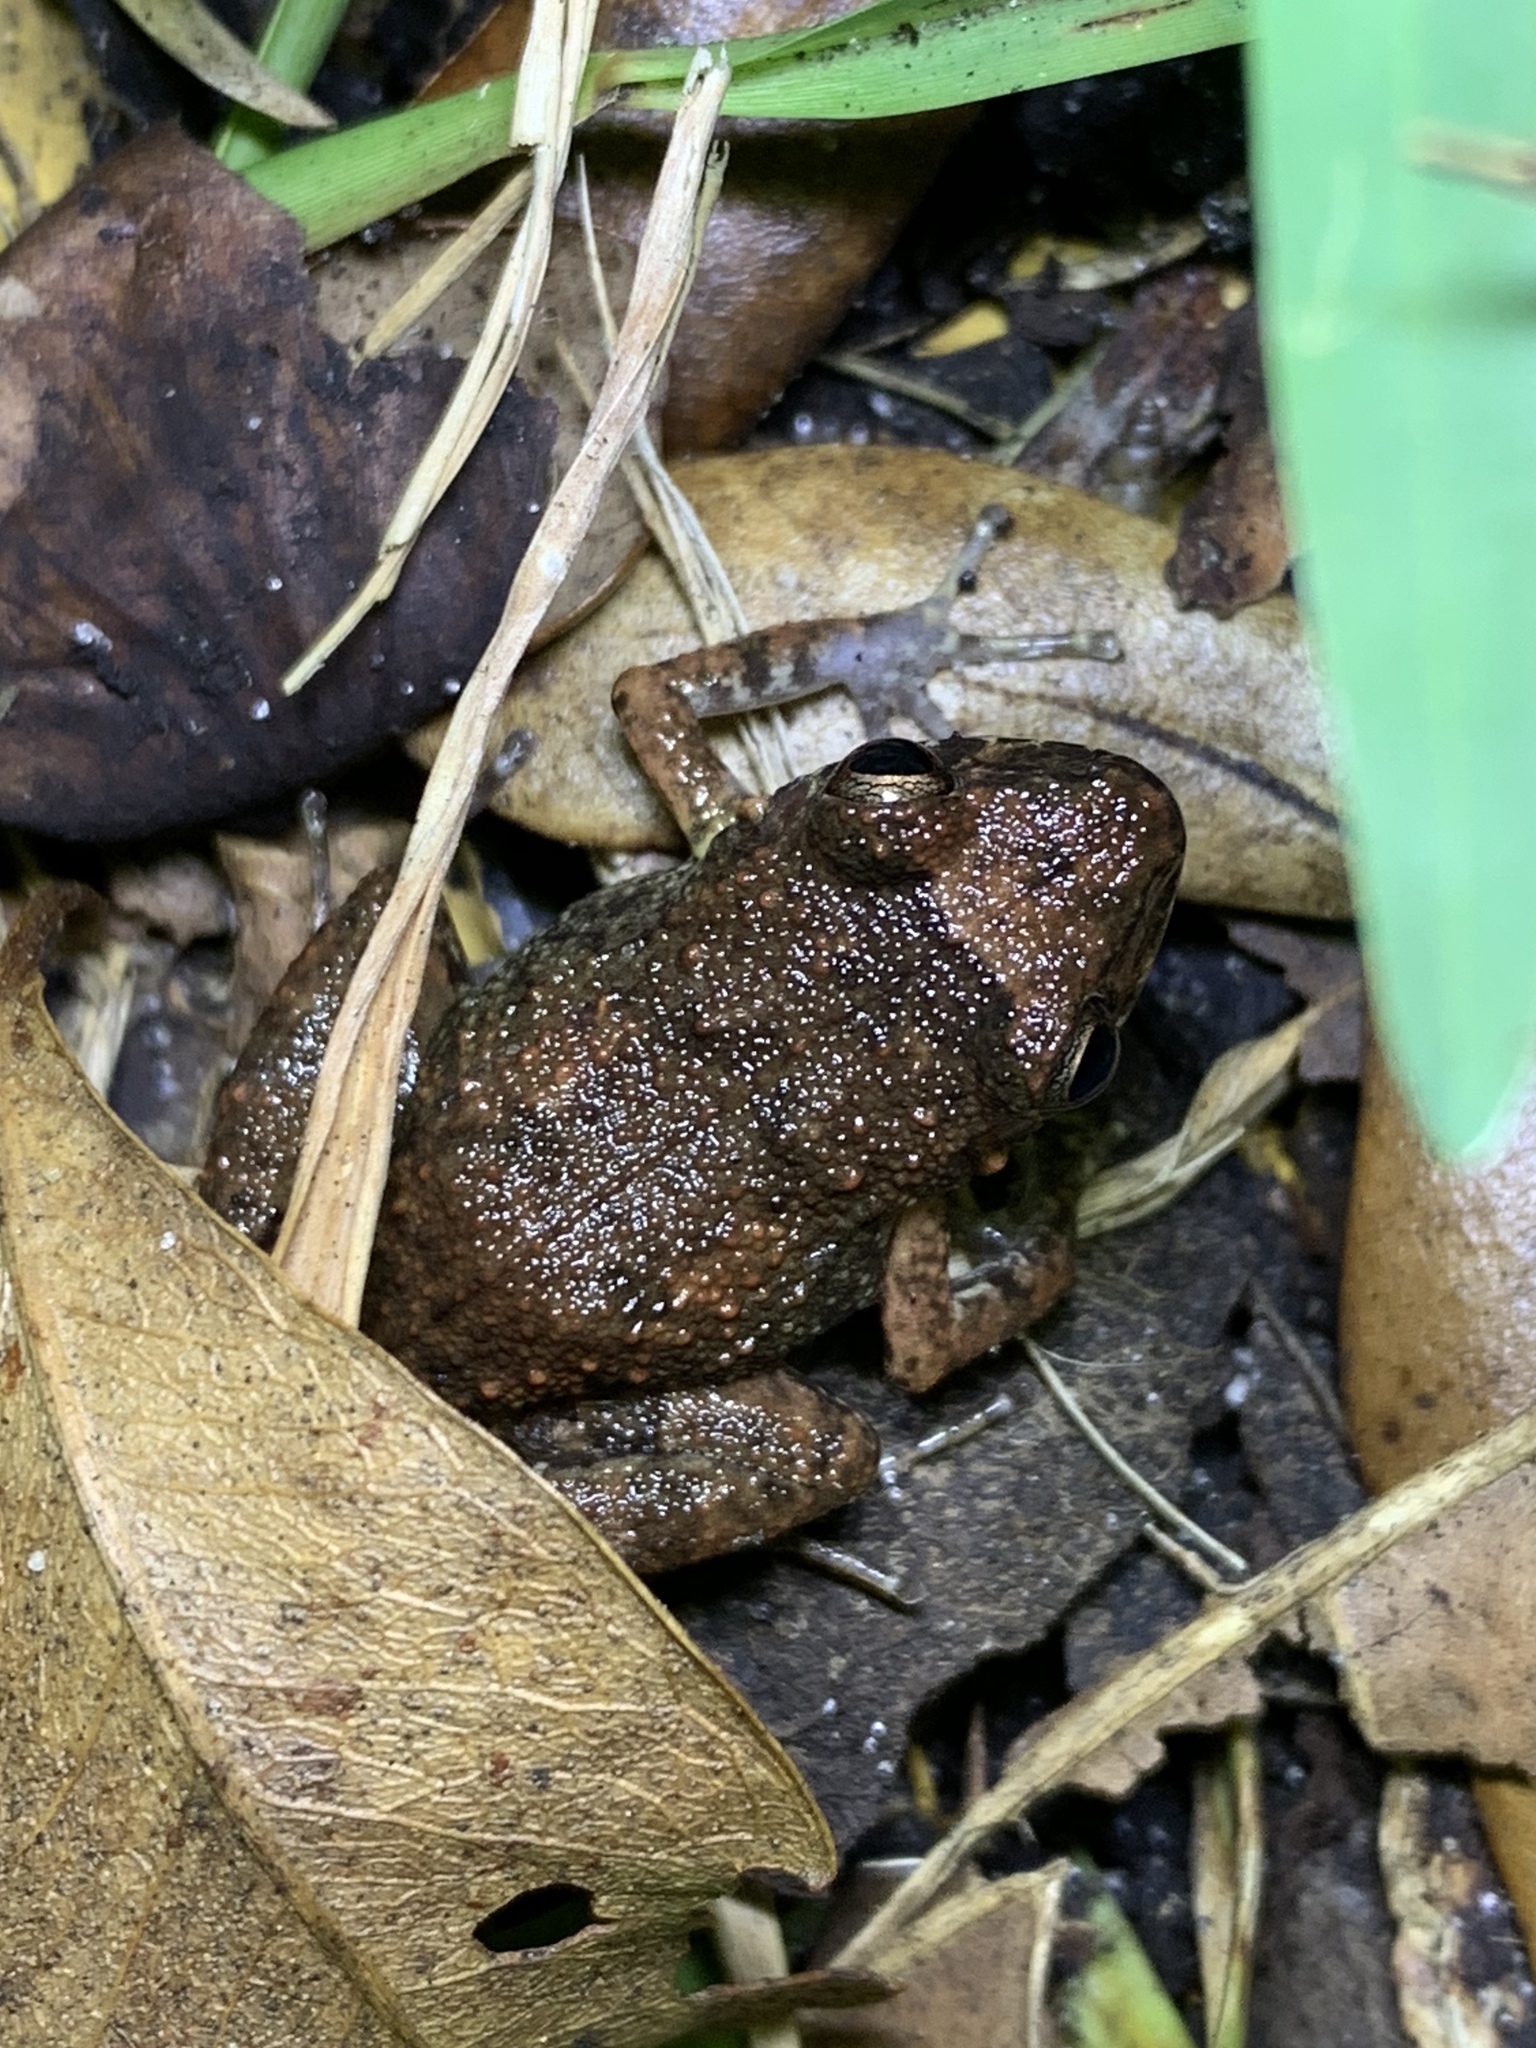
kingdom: Animalia
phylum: Chordata
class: Amphibia
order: Anura
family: Eleutherodactylidae
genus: Eleutherodactylus
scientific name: Eleutherodactylus planirostris
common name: Greenhouse frog
